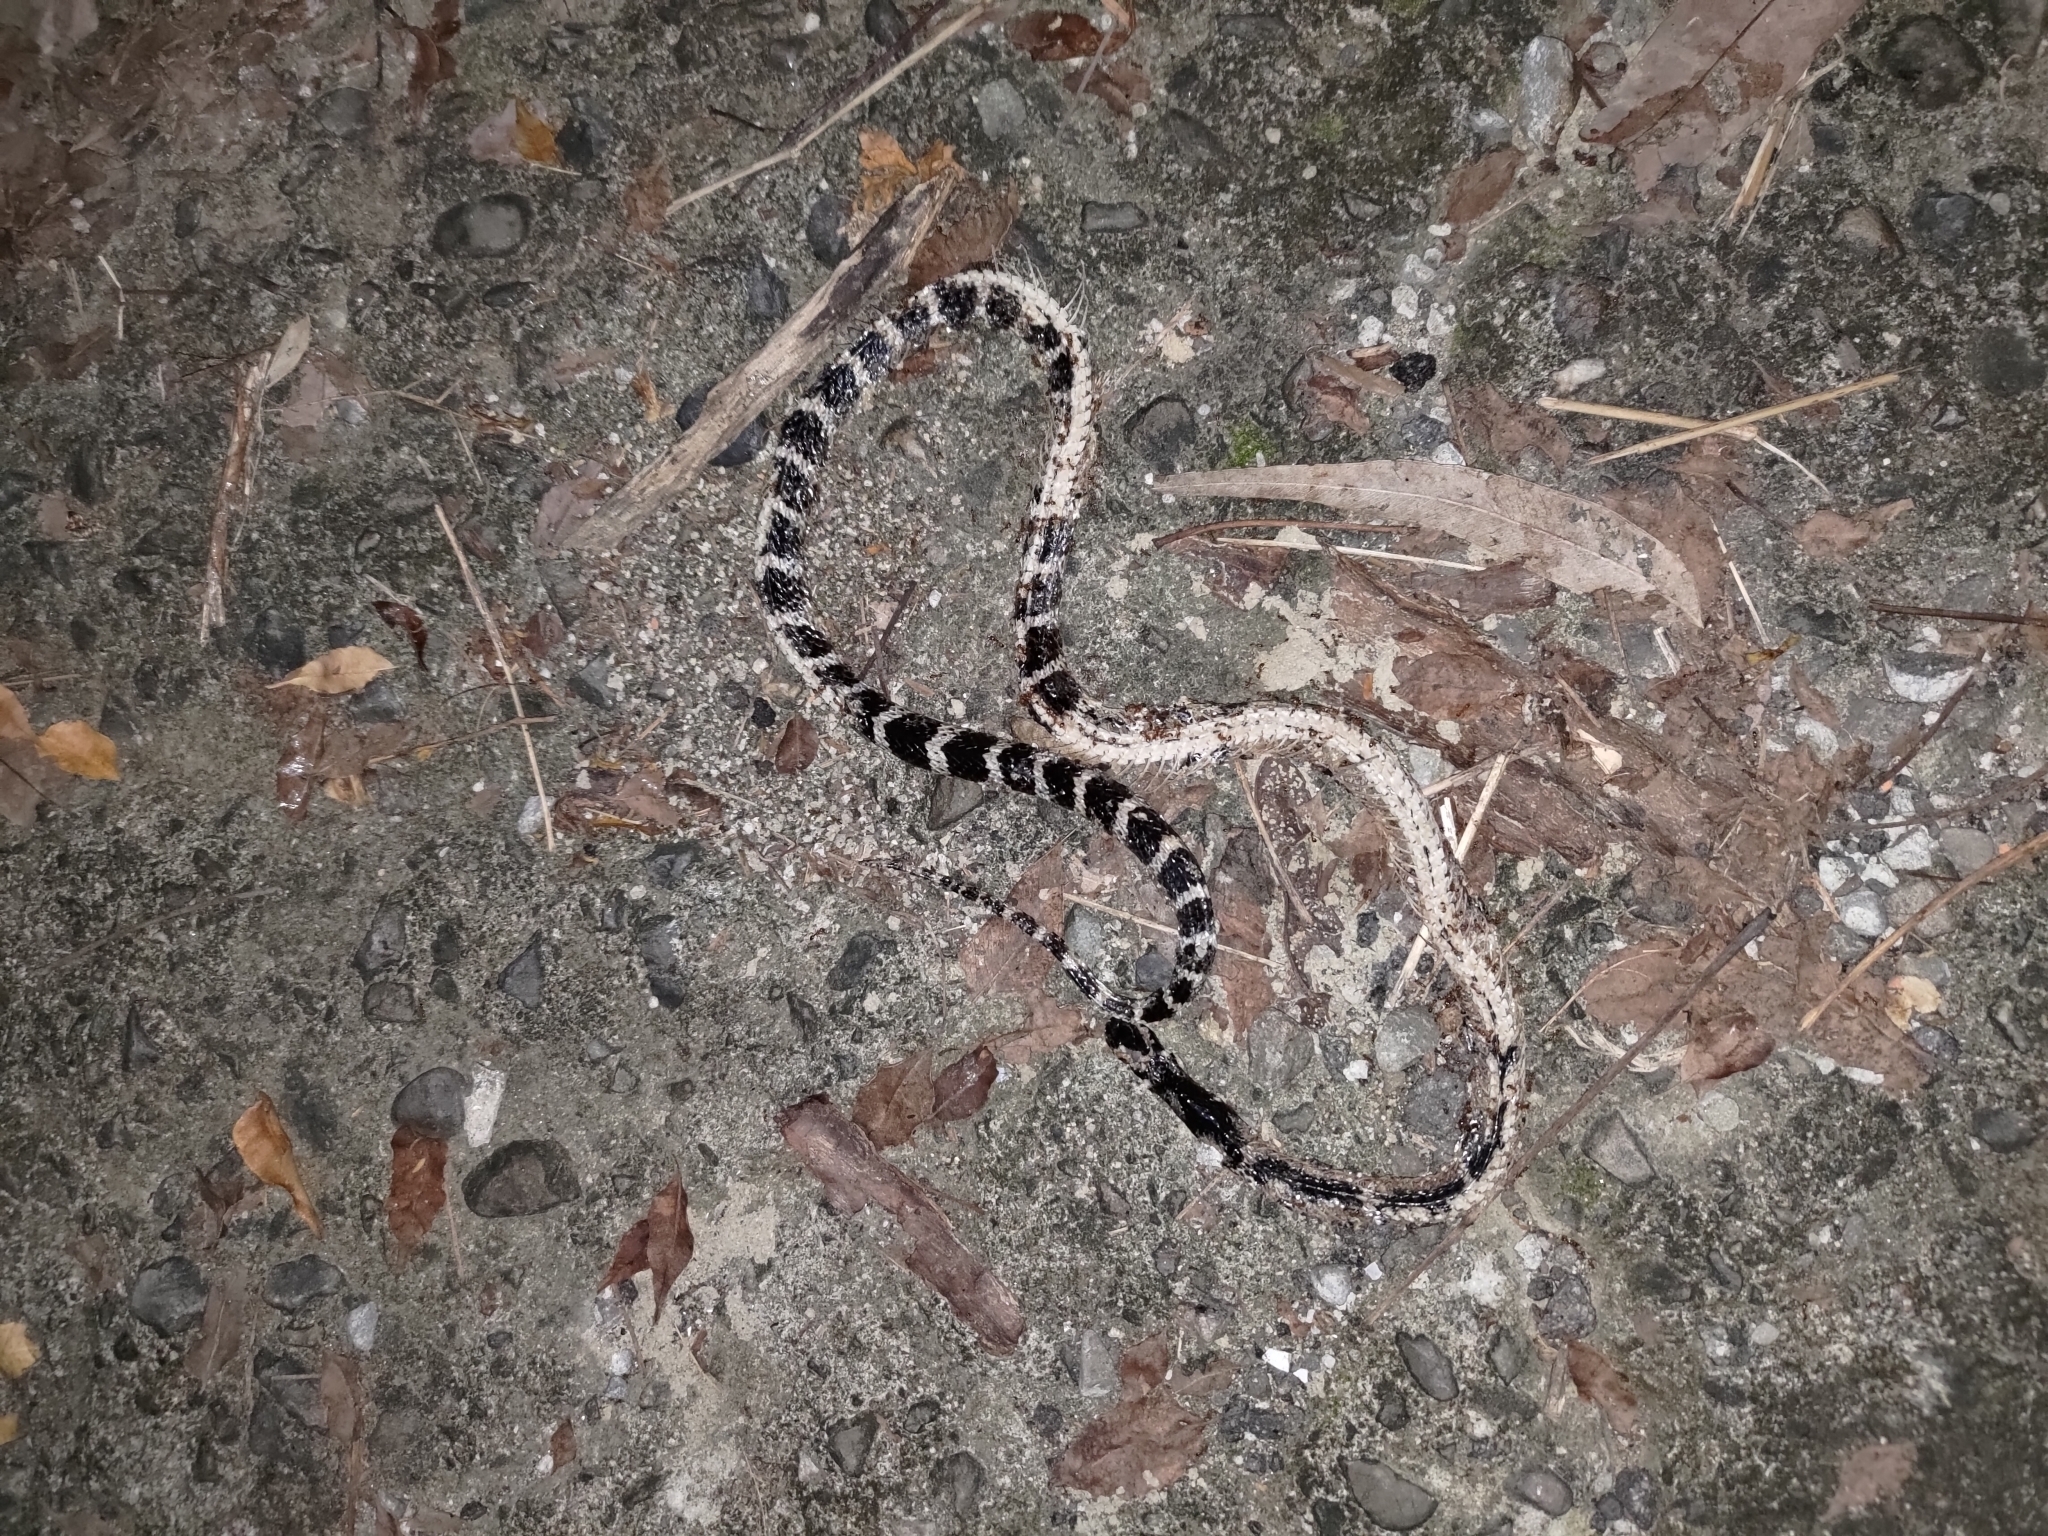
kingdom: Animalia
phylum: Chordata
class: Squamata
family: Elapidae
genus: Bungarus
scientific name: Bungarus multicinctus
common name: Many-banded krait
